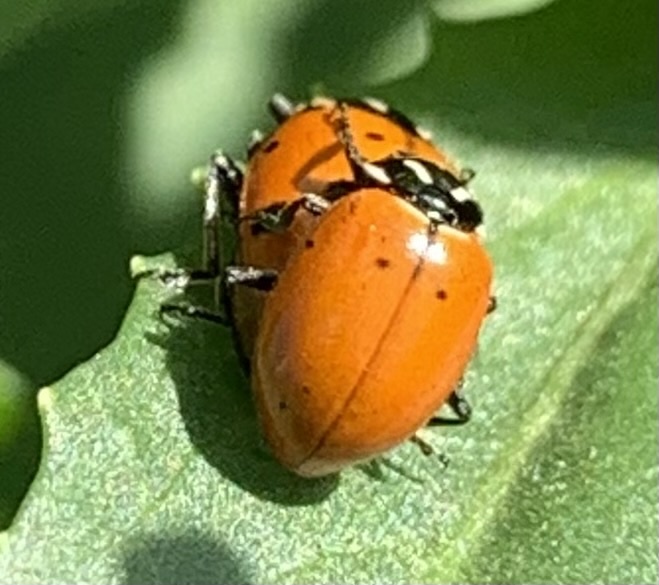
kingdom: Animalia
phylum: Arthropoda
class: Insecta
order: Coleoptera
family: Coccinellidae
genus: Hippodamia
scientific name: Hippodamia convergens
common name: Convergent lady beetle
